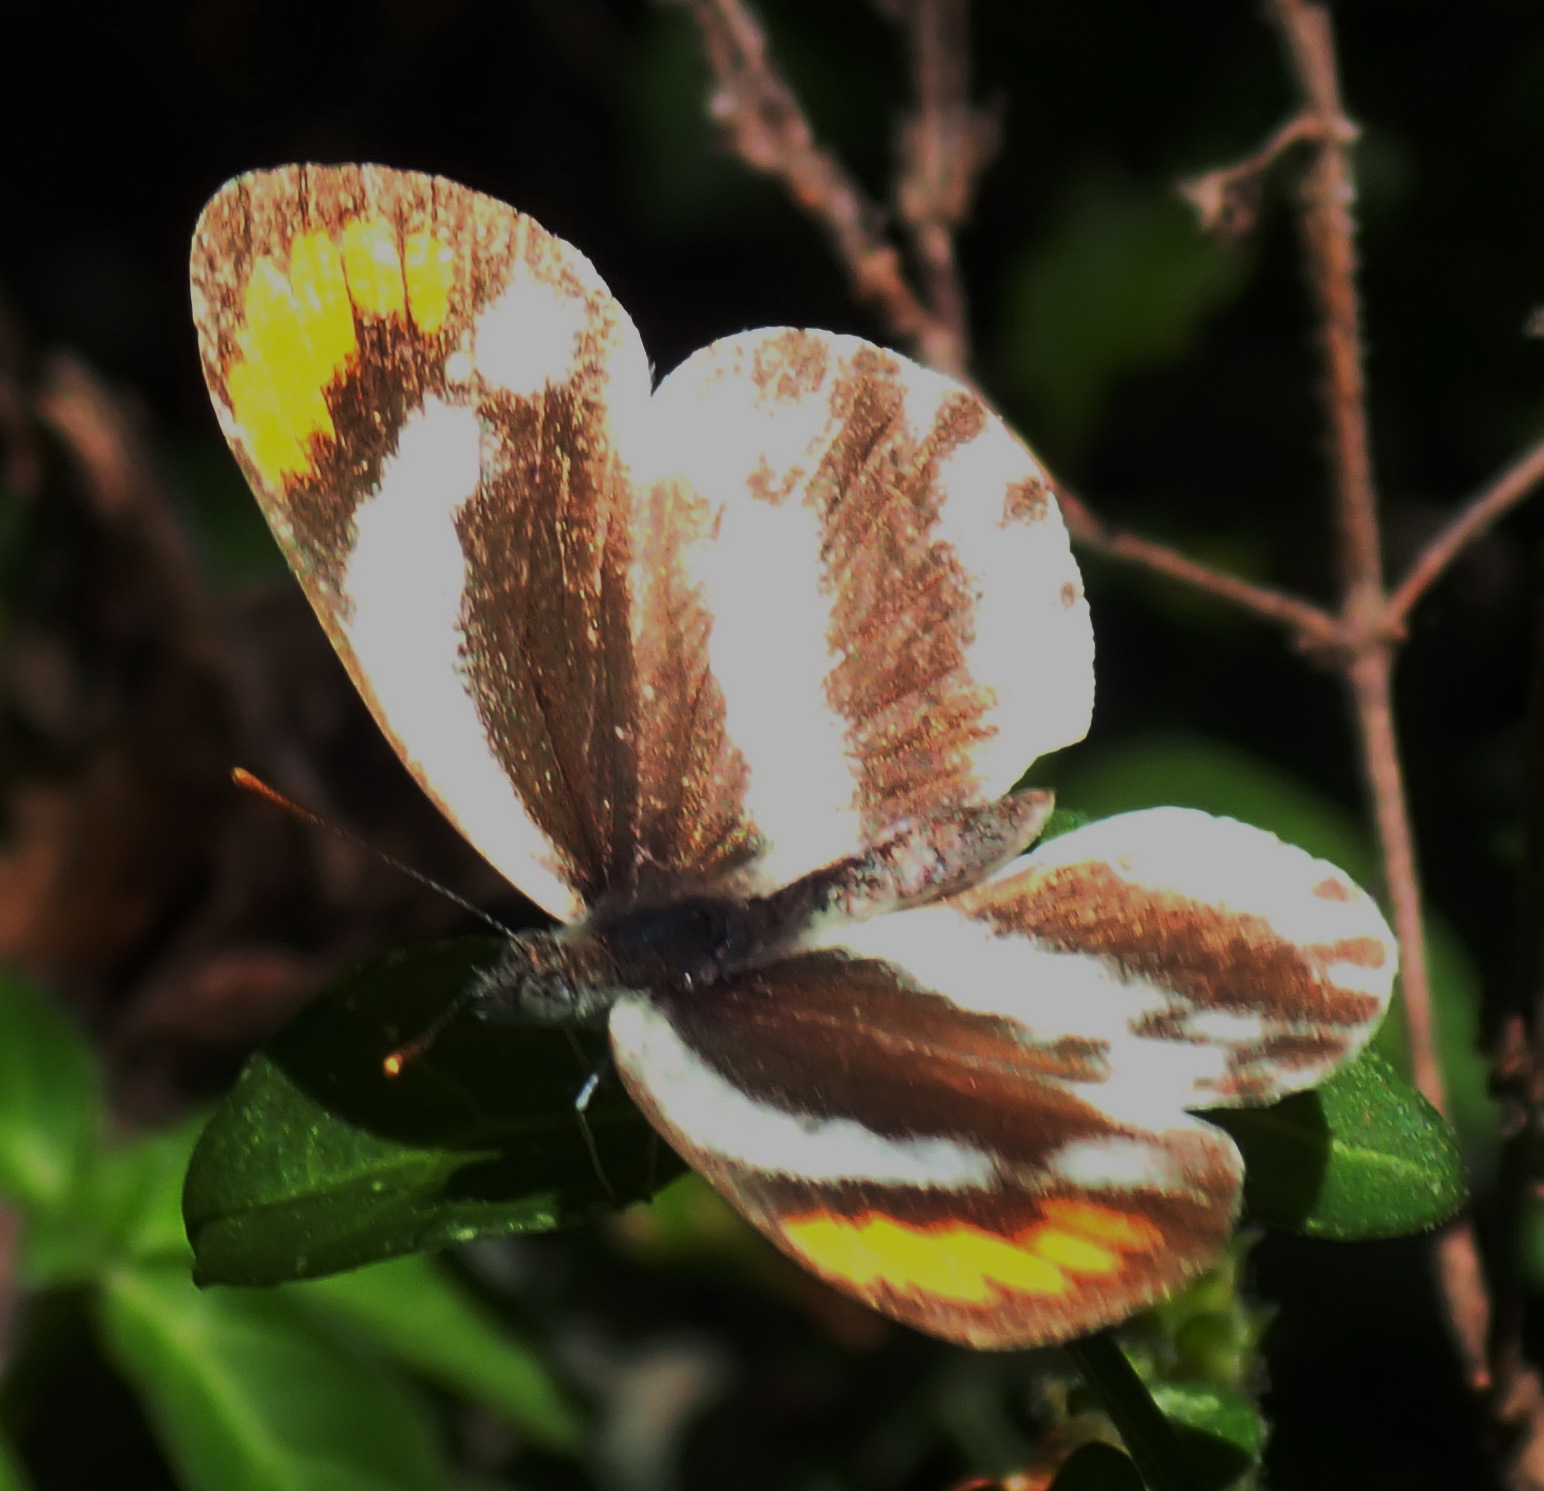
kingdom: Animalia
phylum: Arthropoda
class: Insecta
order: Lepidoptera
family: Pieridae
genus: Colotis
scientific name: Colotis euippe
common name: Round-winged orange tip
